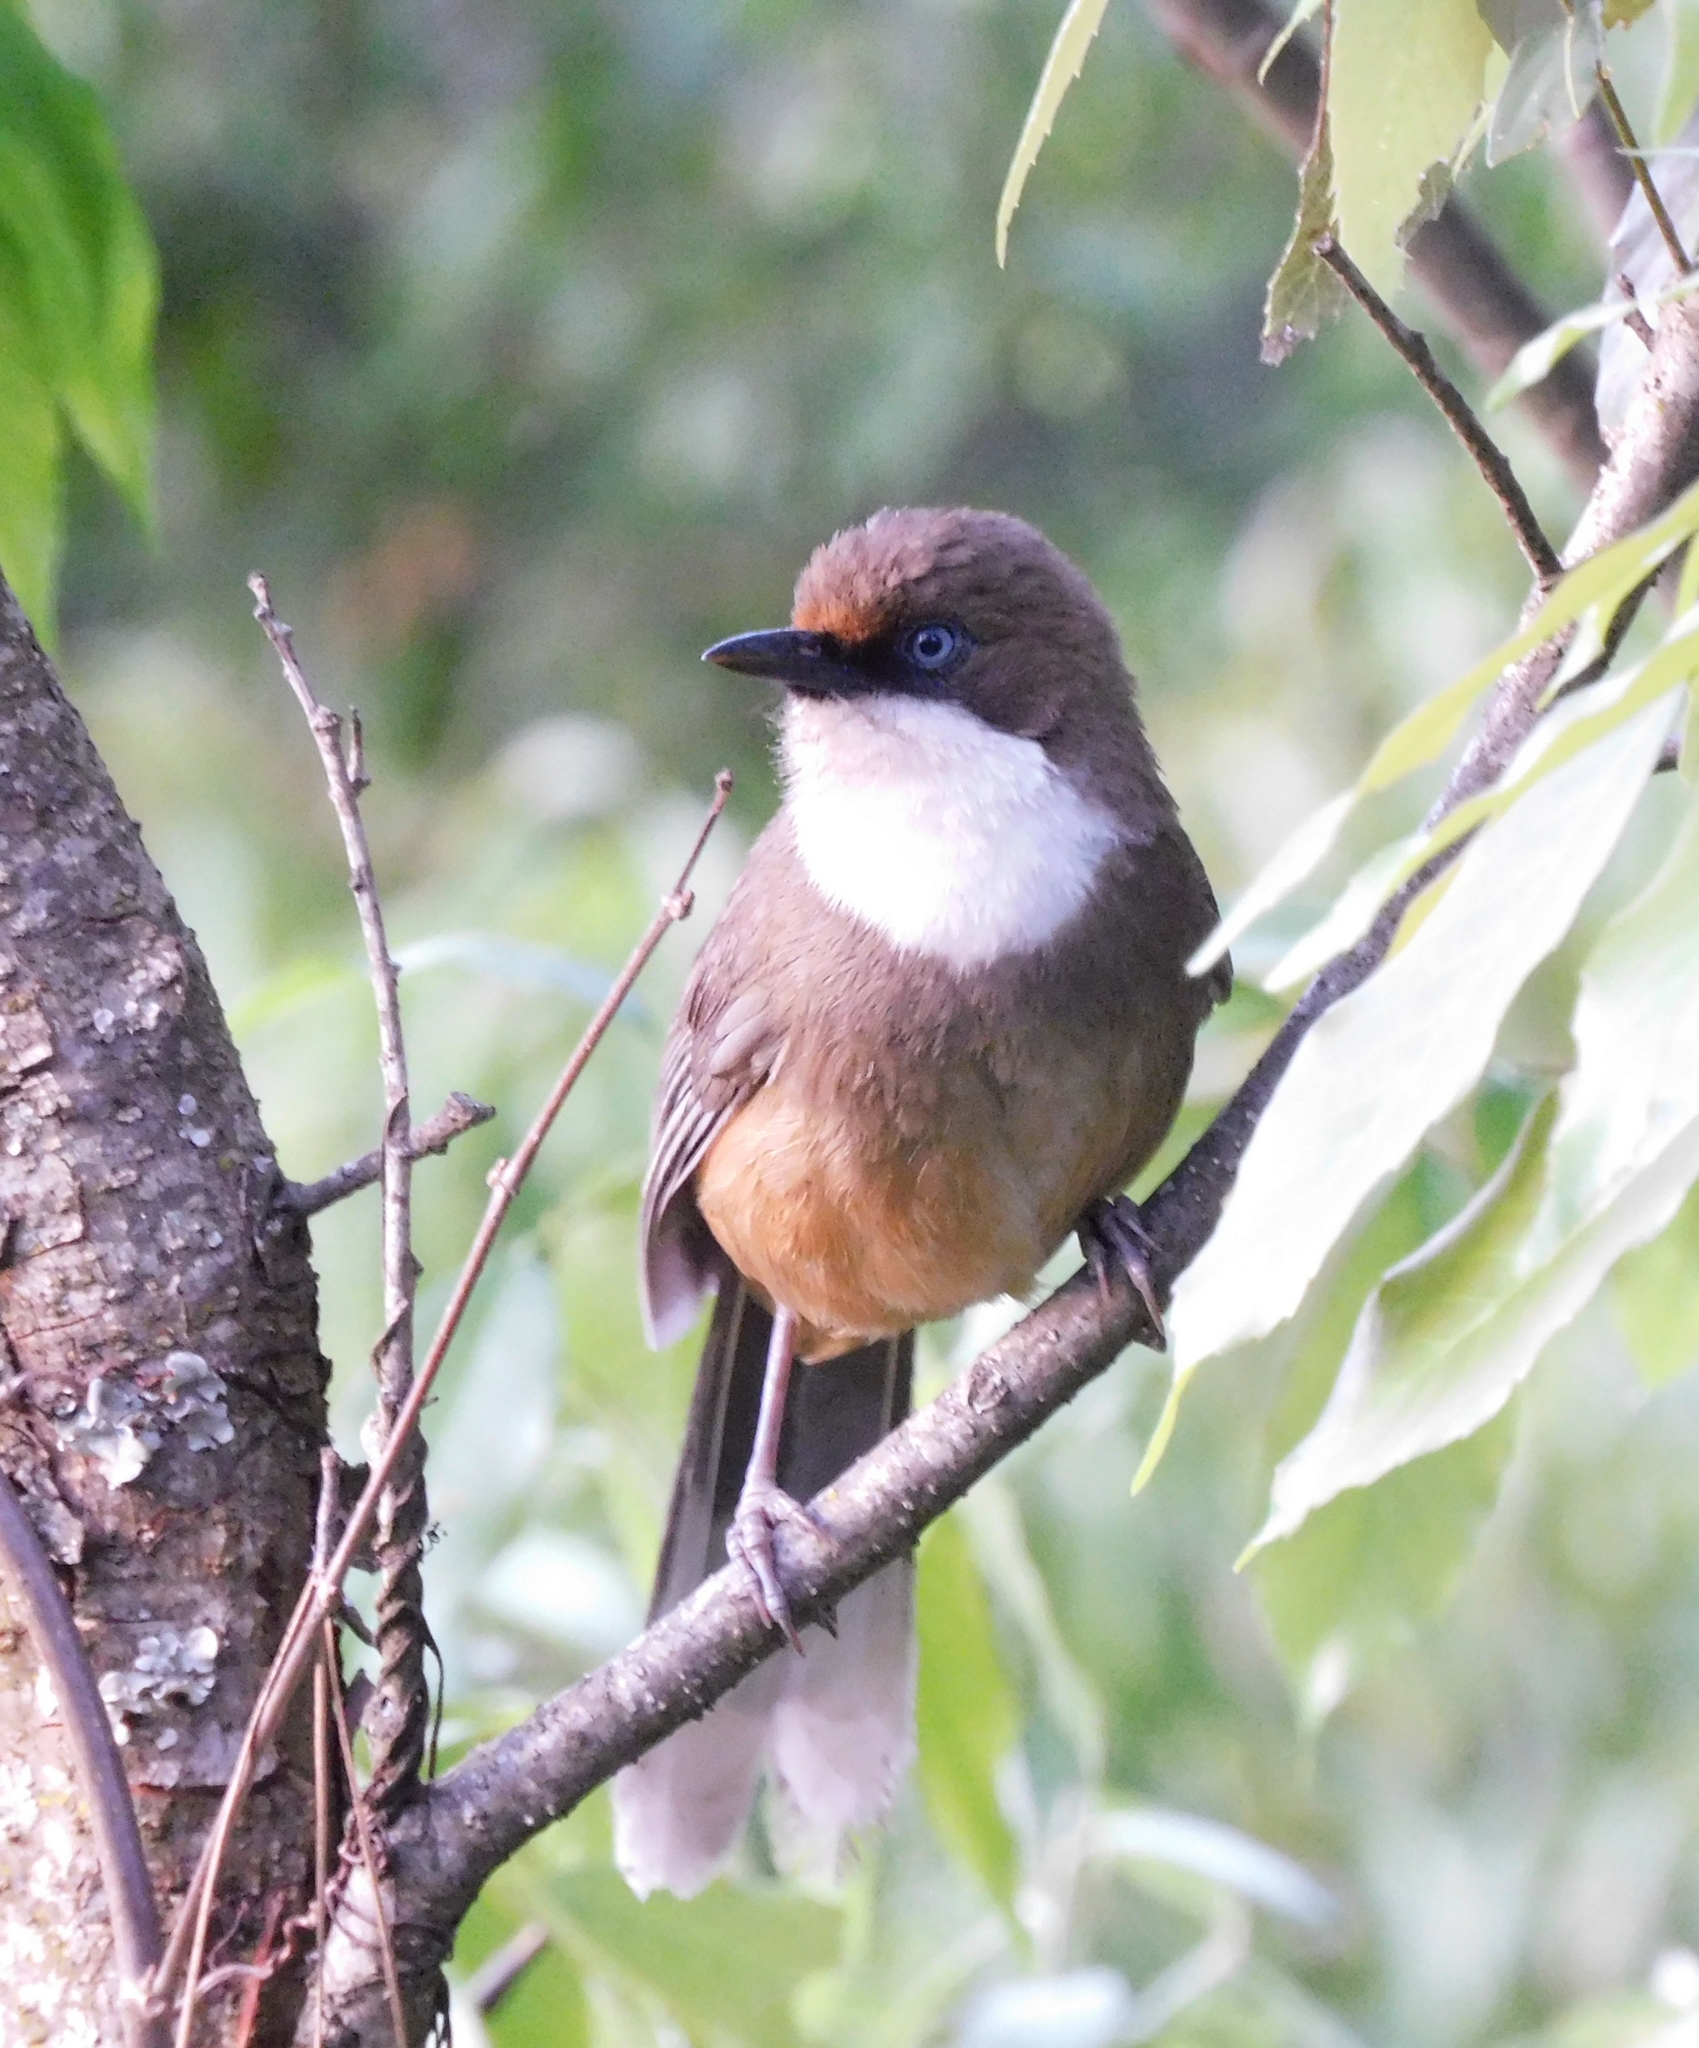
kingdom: Animalia
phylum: Chordata
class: Aves
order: Passeriformes
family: Leiothrichidae
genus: Garrulax
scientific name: Garrulax albogularis
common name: White-throated laughingthrush
